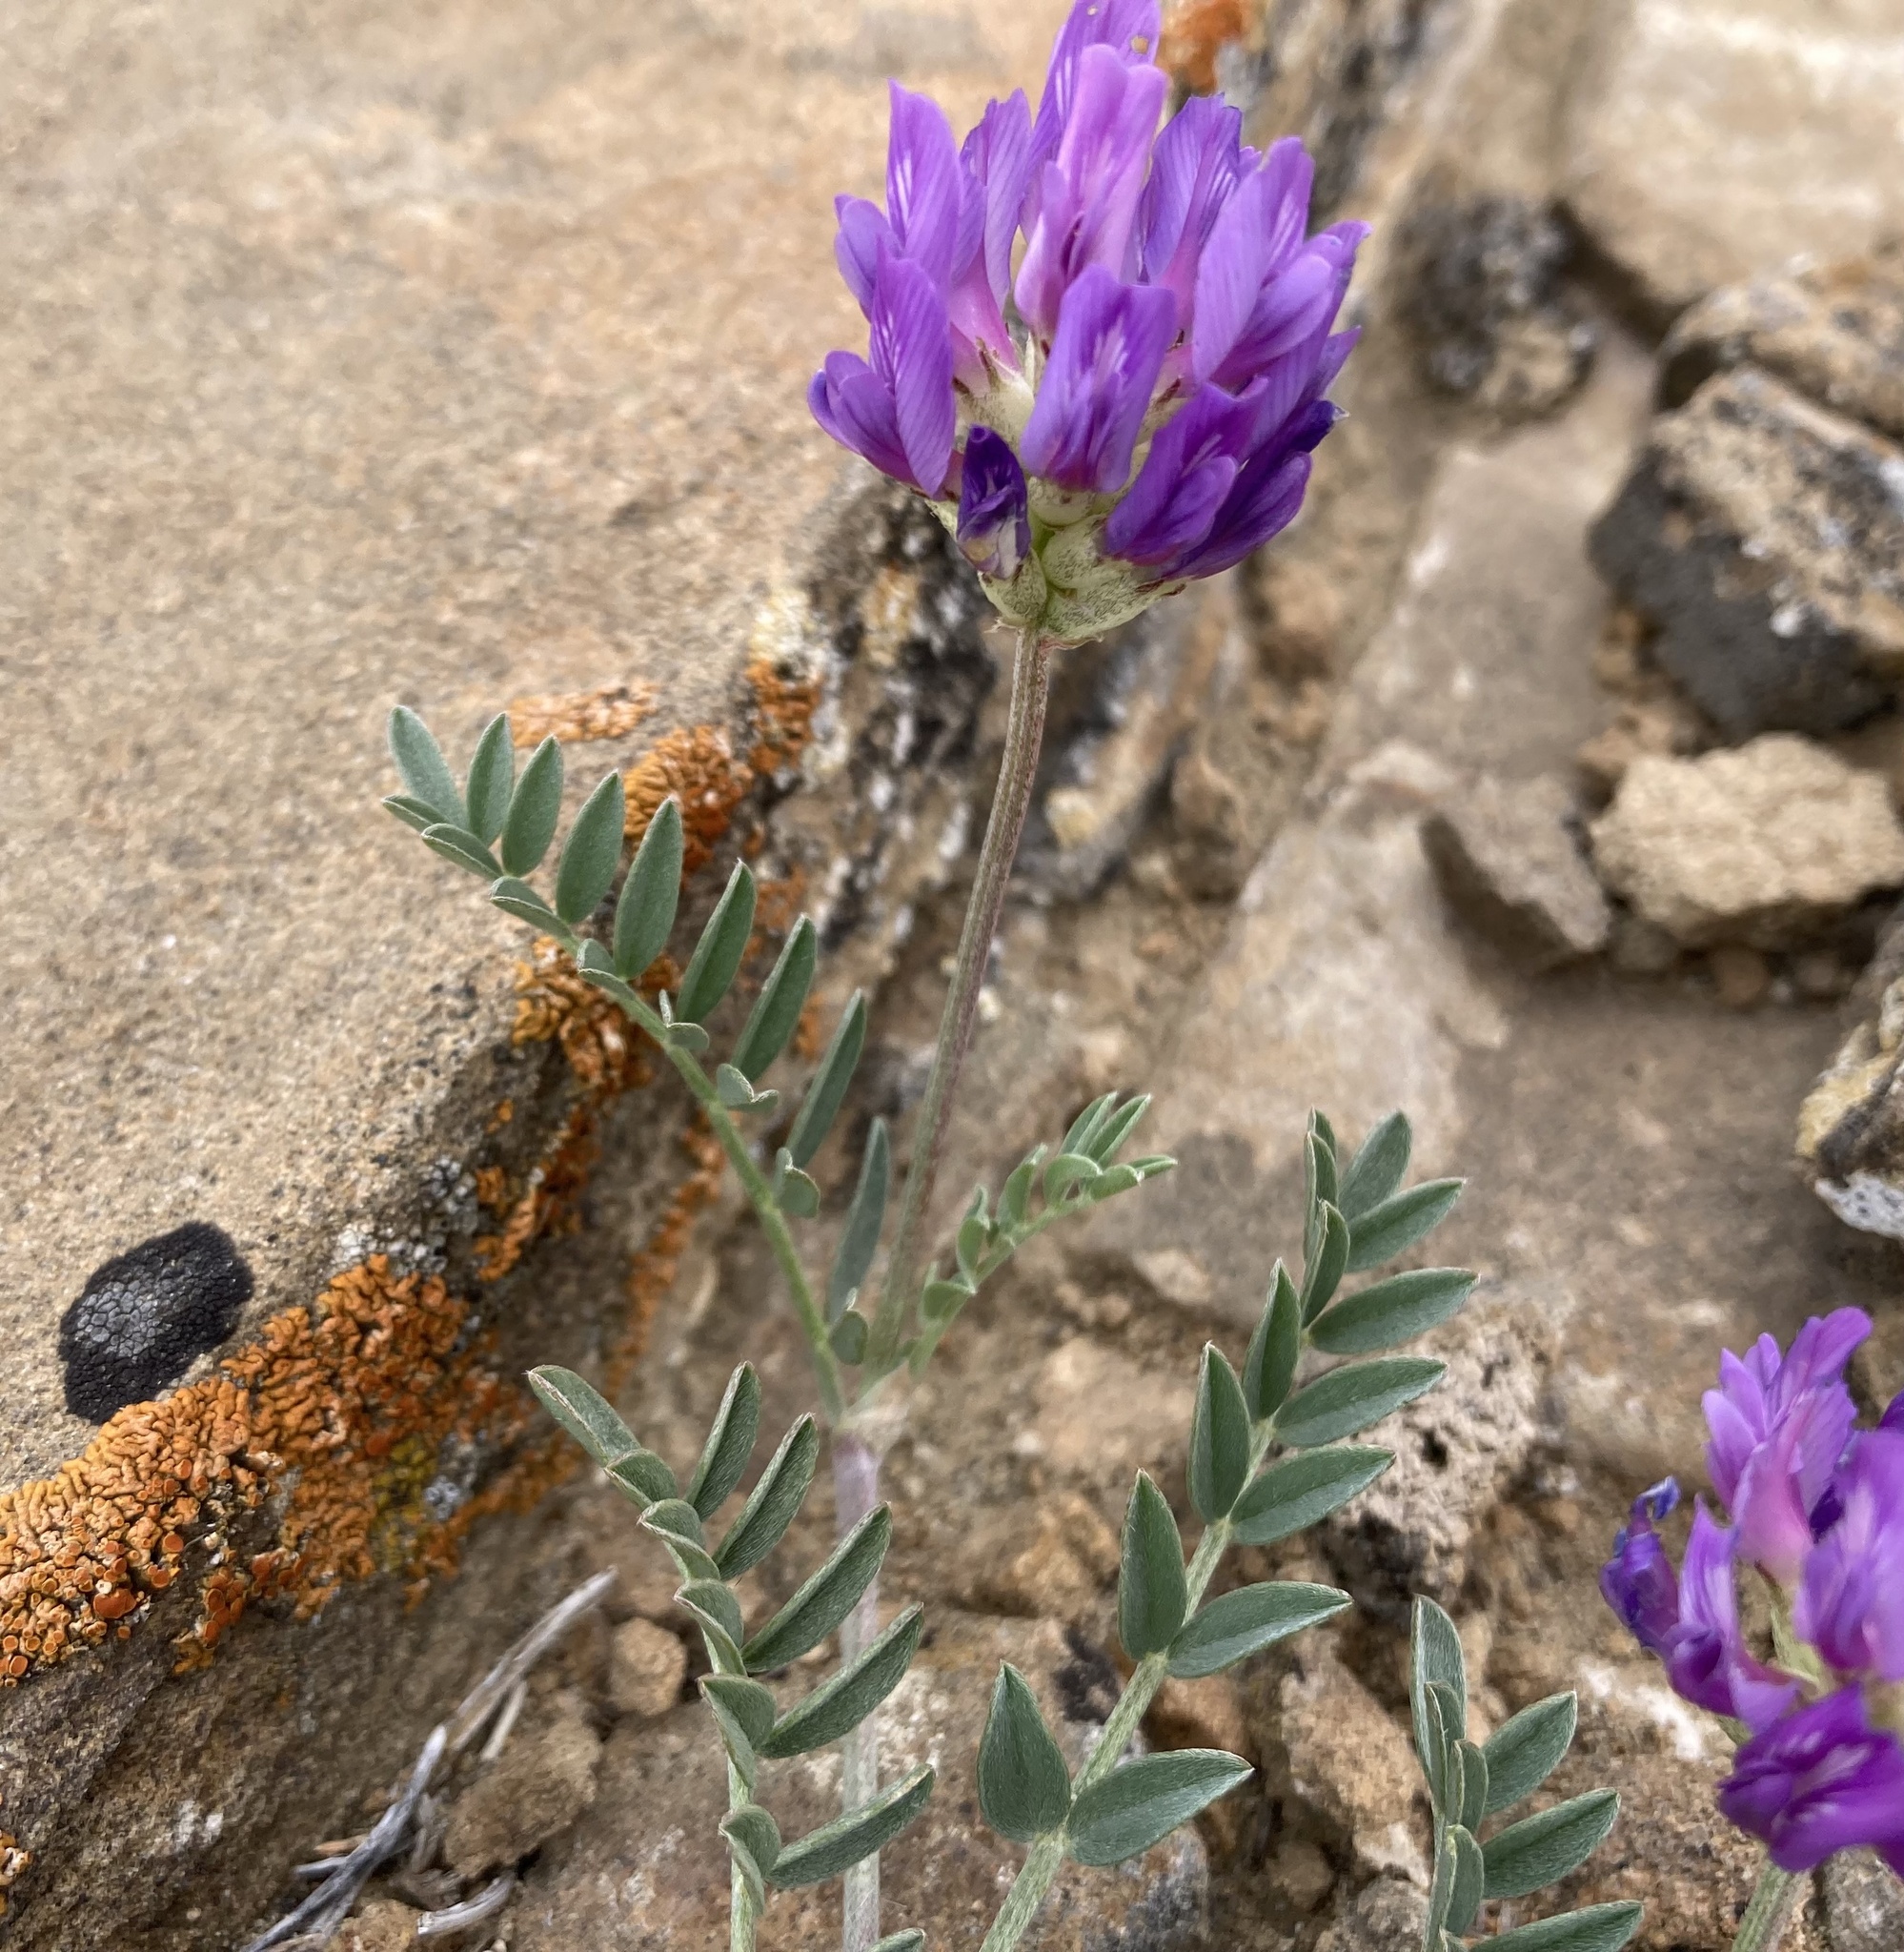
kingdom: Plantae
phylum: Tracheophyta
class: Magnoliopsida
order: Fabales
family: Fabaceae
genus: Astragalus
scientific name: Astragalus laxmannii
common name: Laxmann's milk-vetch
